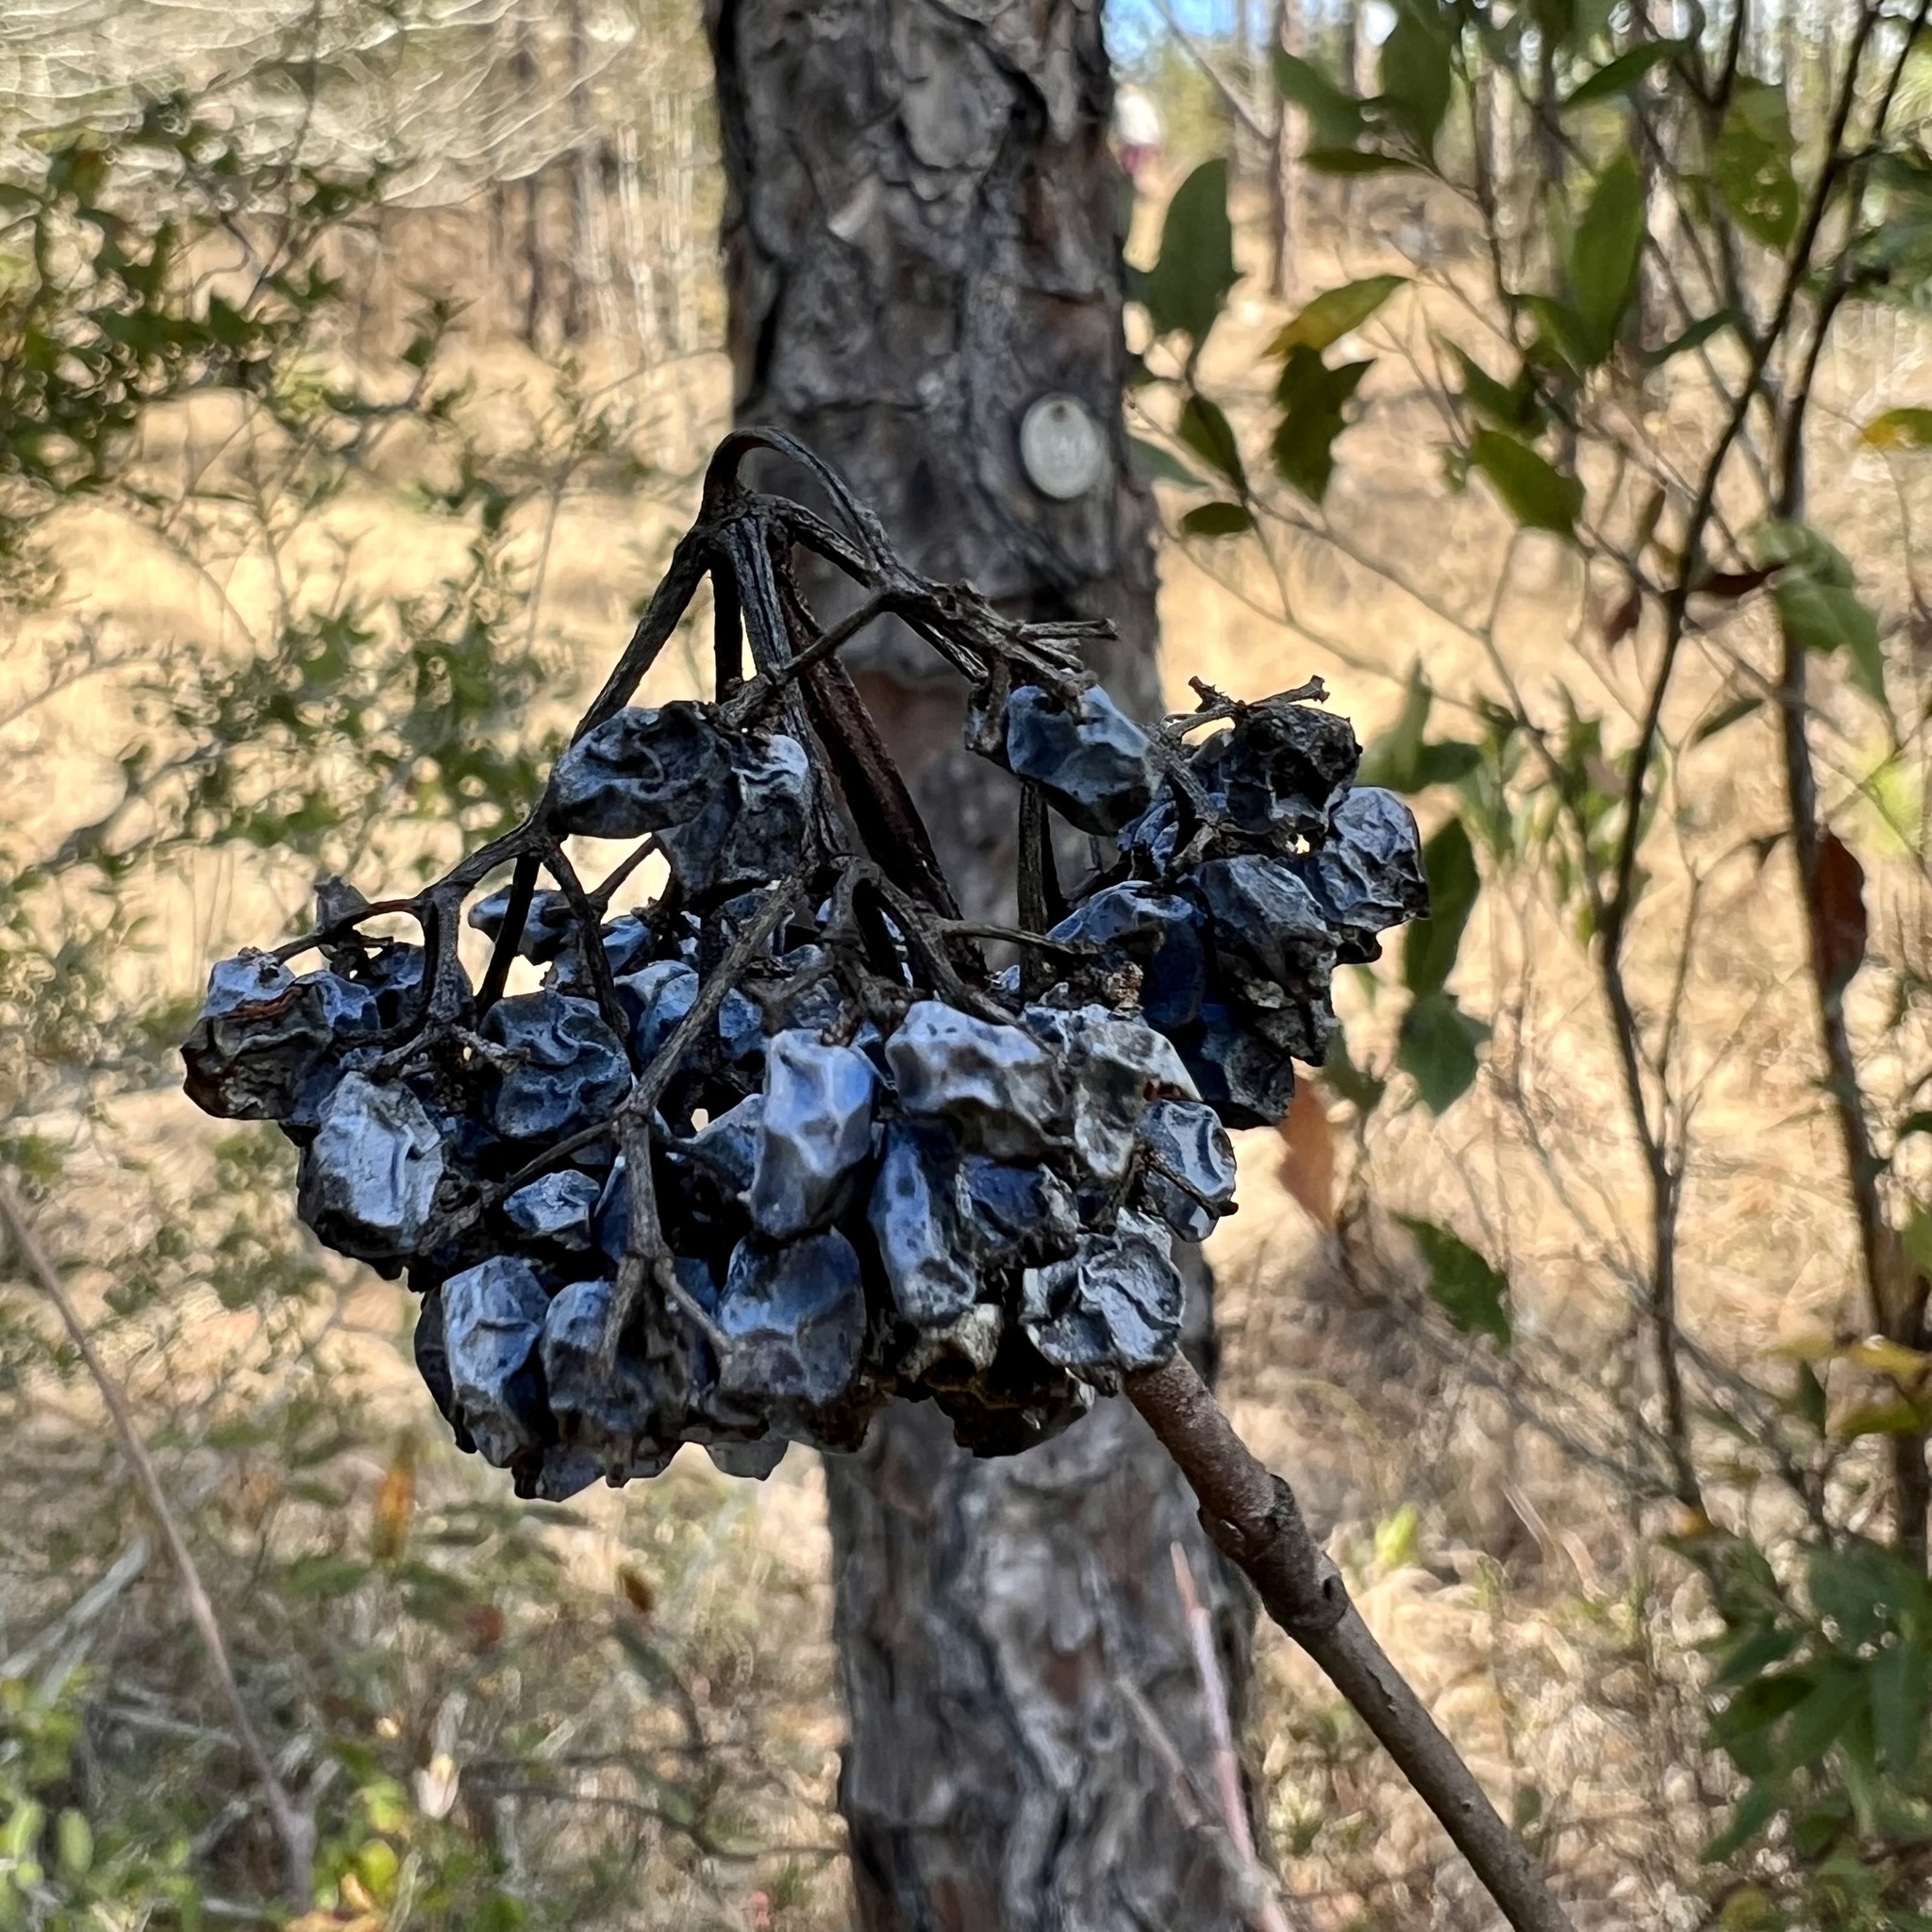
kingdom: Plantae
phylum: Tracheophyta
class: Magnoliopsida
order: Dipsacales
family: Viburnaceae
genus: Viburnum
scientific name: Viburnum nudum
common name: Possum haw
